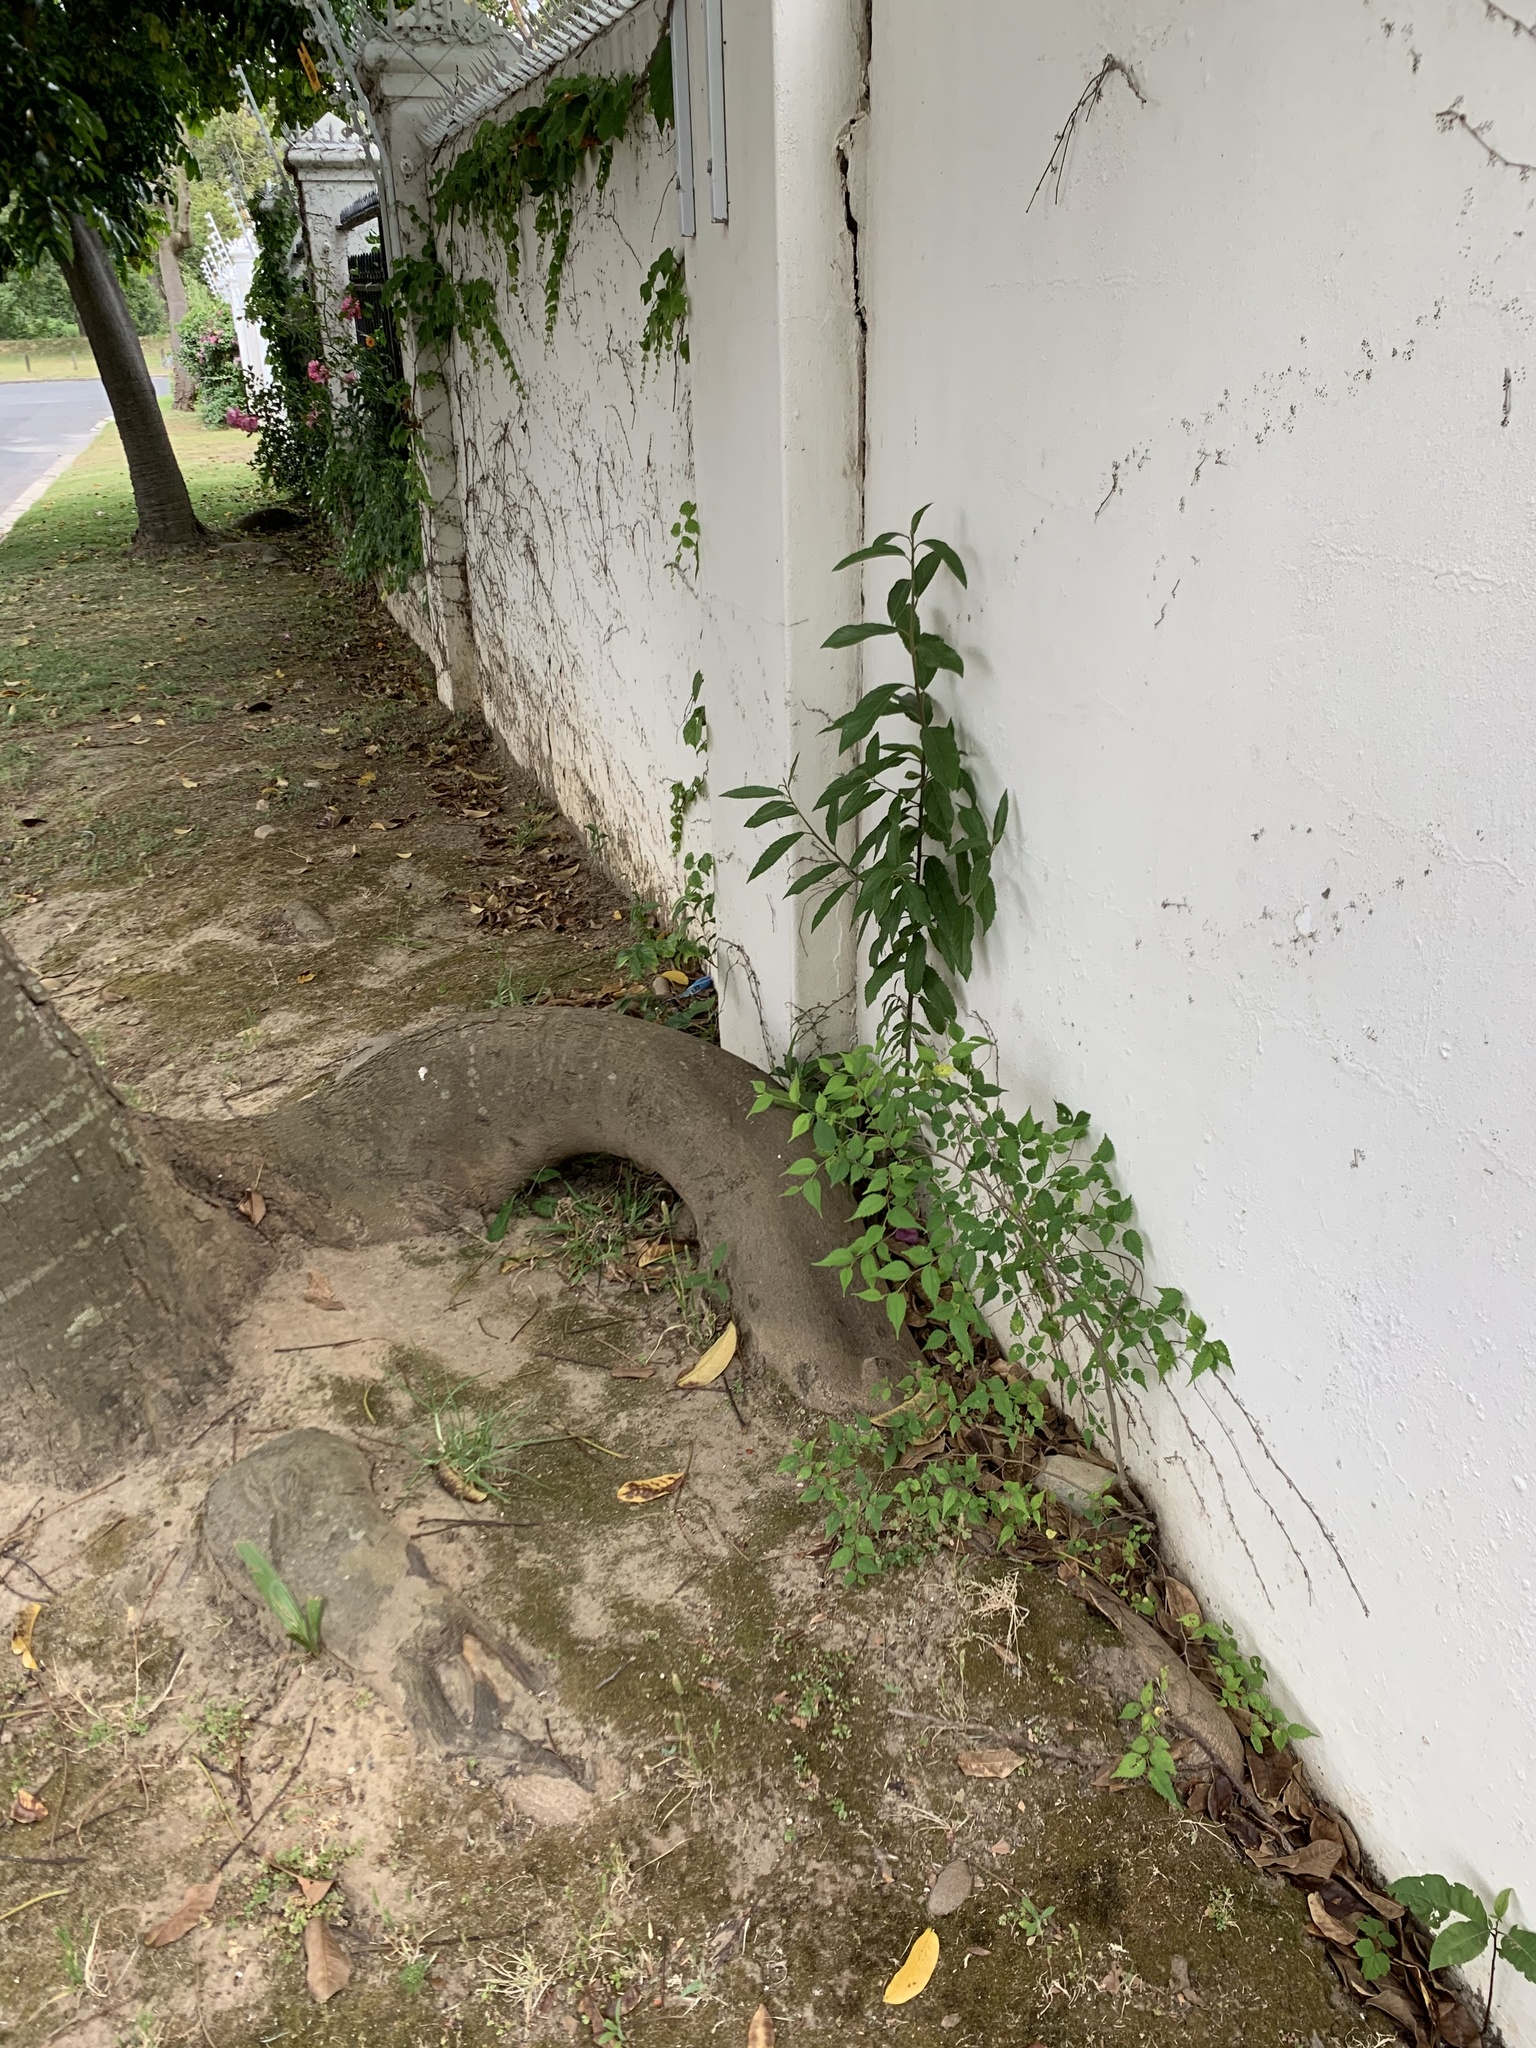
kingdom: Plantae
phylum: Tracheophyta
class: Magnoliopsida
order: Malpighiales
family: Achariaceae
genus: Kiggelaria
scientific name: Kiggelaria africana
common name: Wild peach
